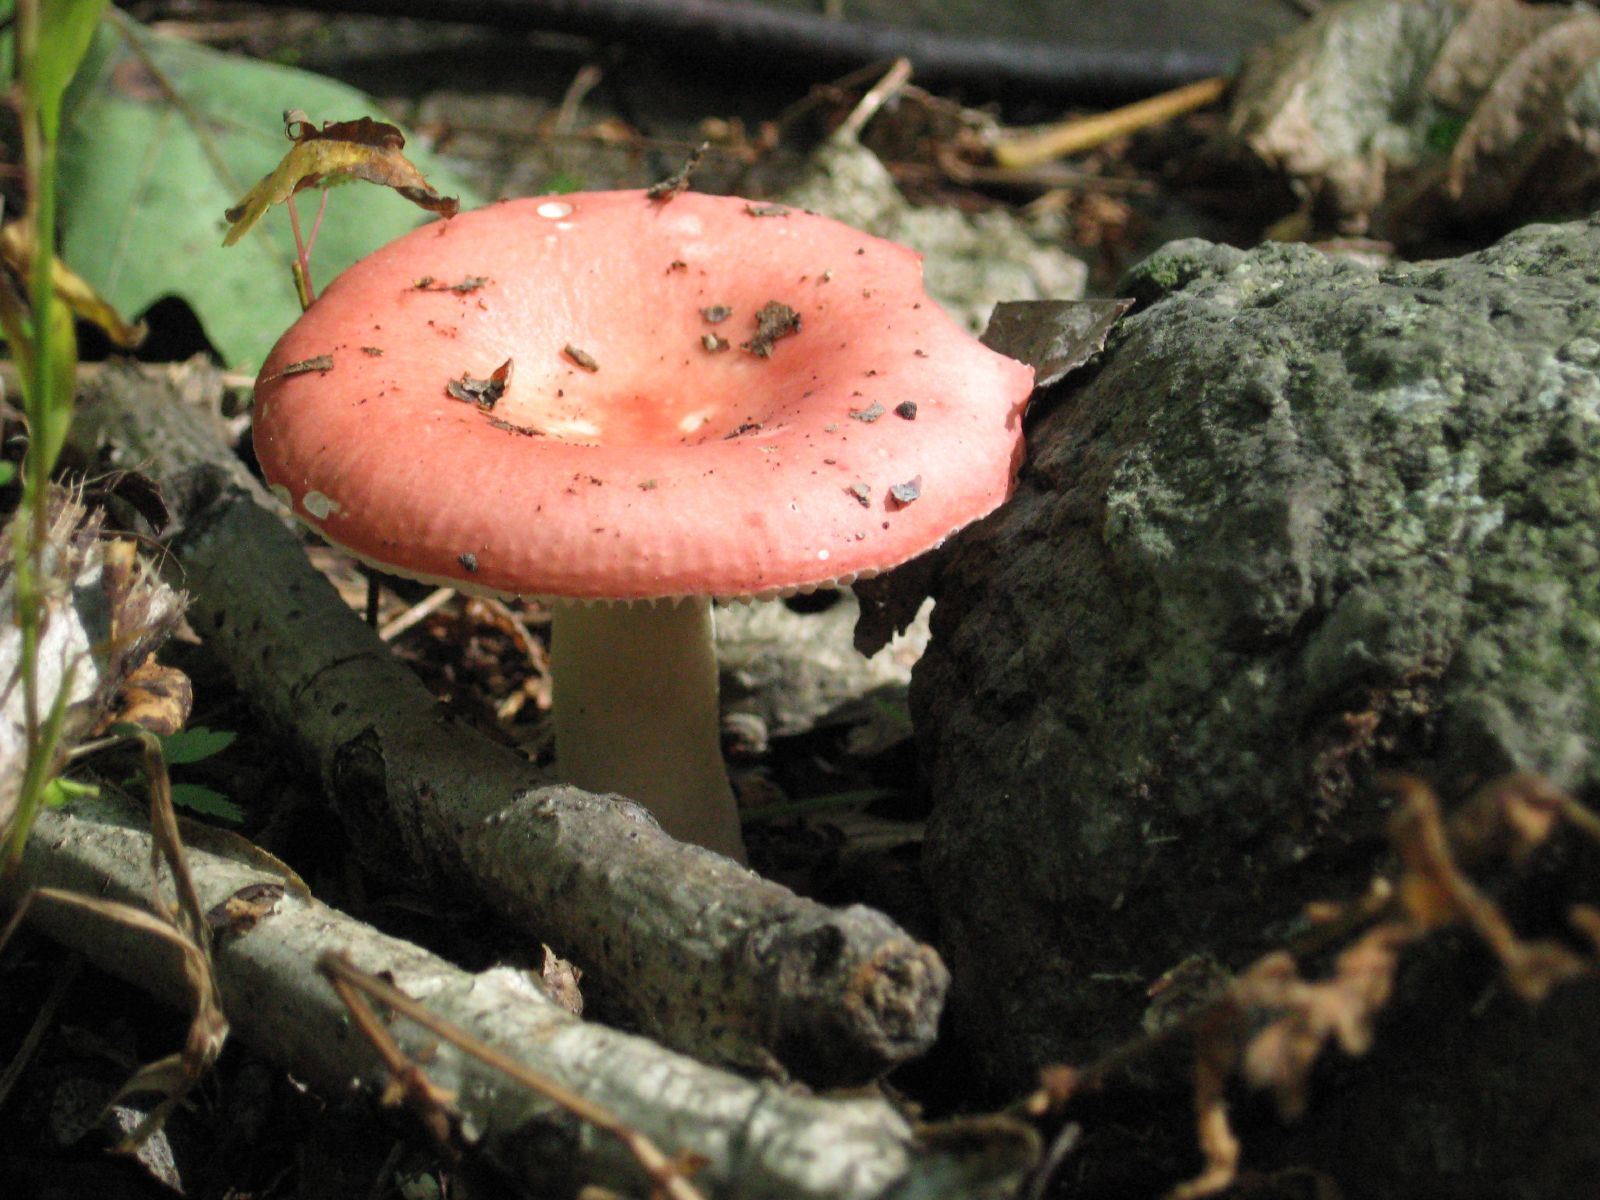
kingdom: Fungi
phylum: Basidiomycota
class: Agaricomycetes
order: Russulales
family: Russulaceae
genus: Russula
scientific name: Russula
